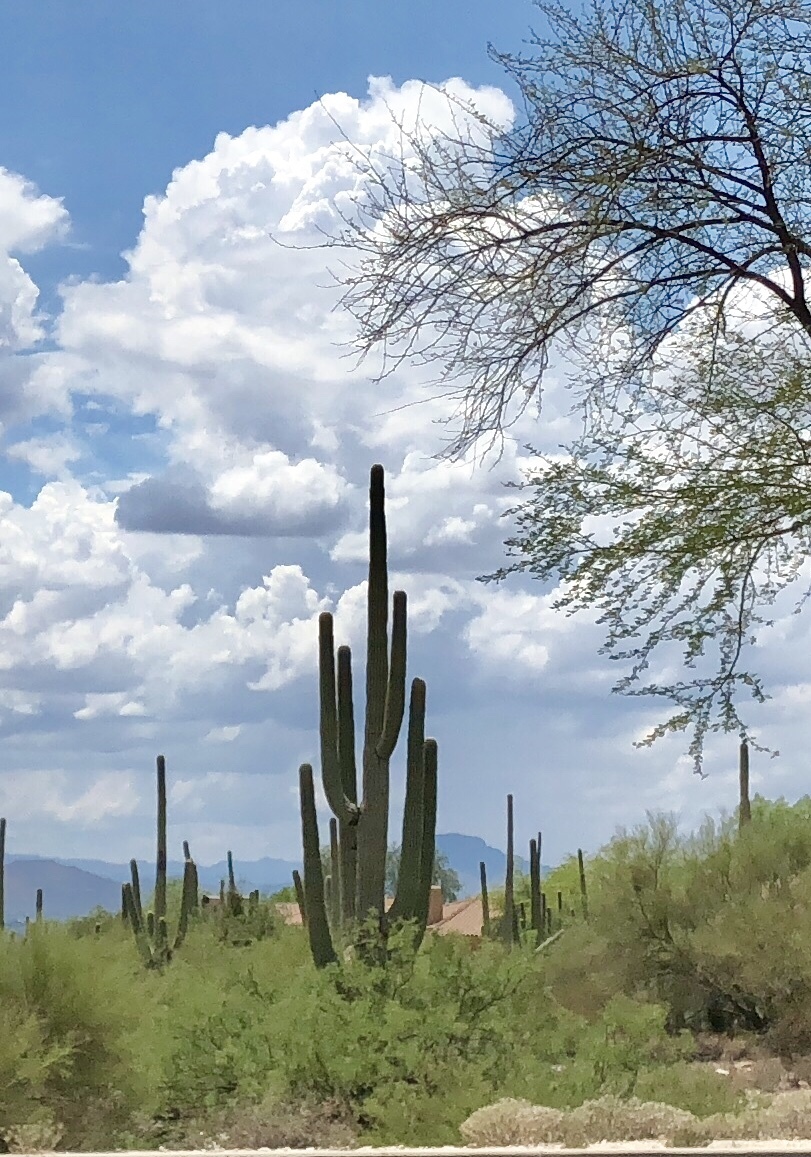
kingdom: Plantae
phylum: Tracheophyta
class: Magnoliopsida
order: Caryophyllales
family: Cactaceae
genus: Carnegiea
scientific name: Carnegiea gigantea
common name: Saguaro
